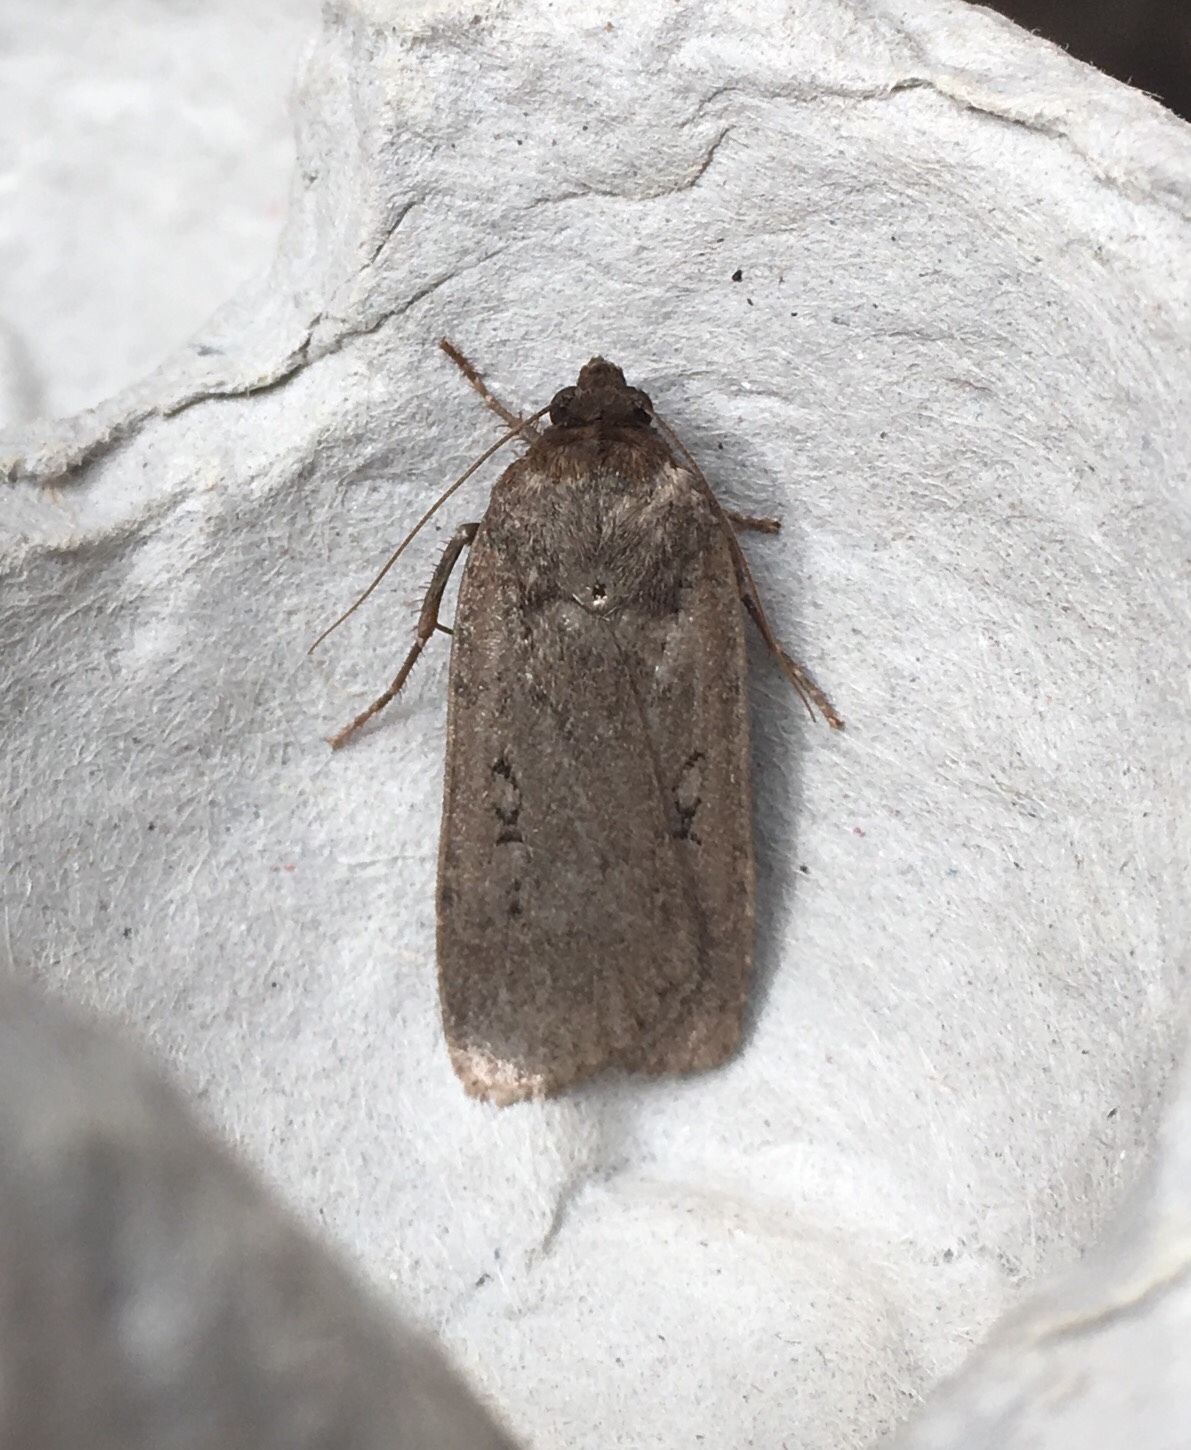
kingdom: Animalia
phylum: Arthropoda
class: Insecta
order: Lepidoptera
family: Noctuidae
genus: Spaelotis
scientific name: Spaelotis clandestina
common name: Clandestine dart
